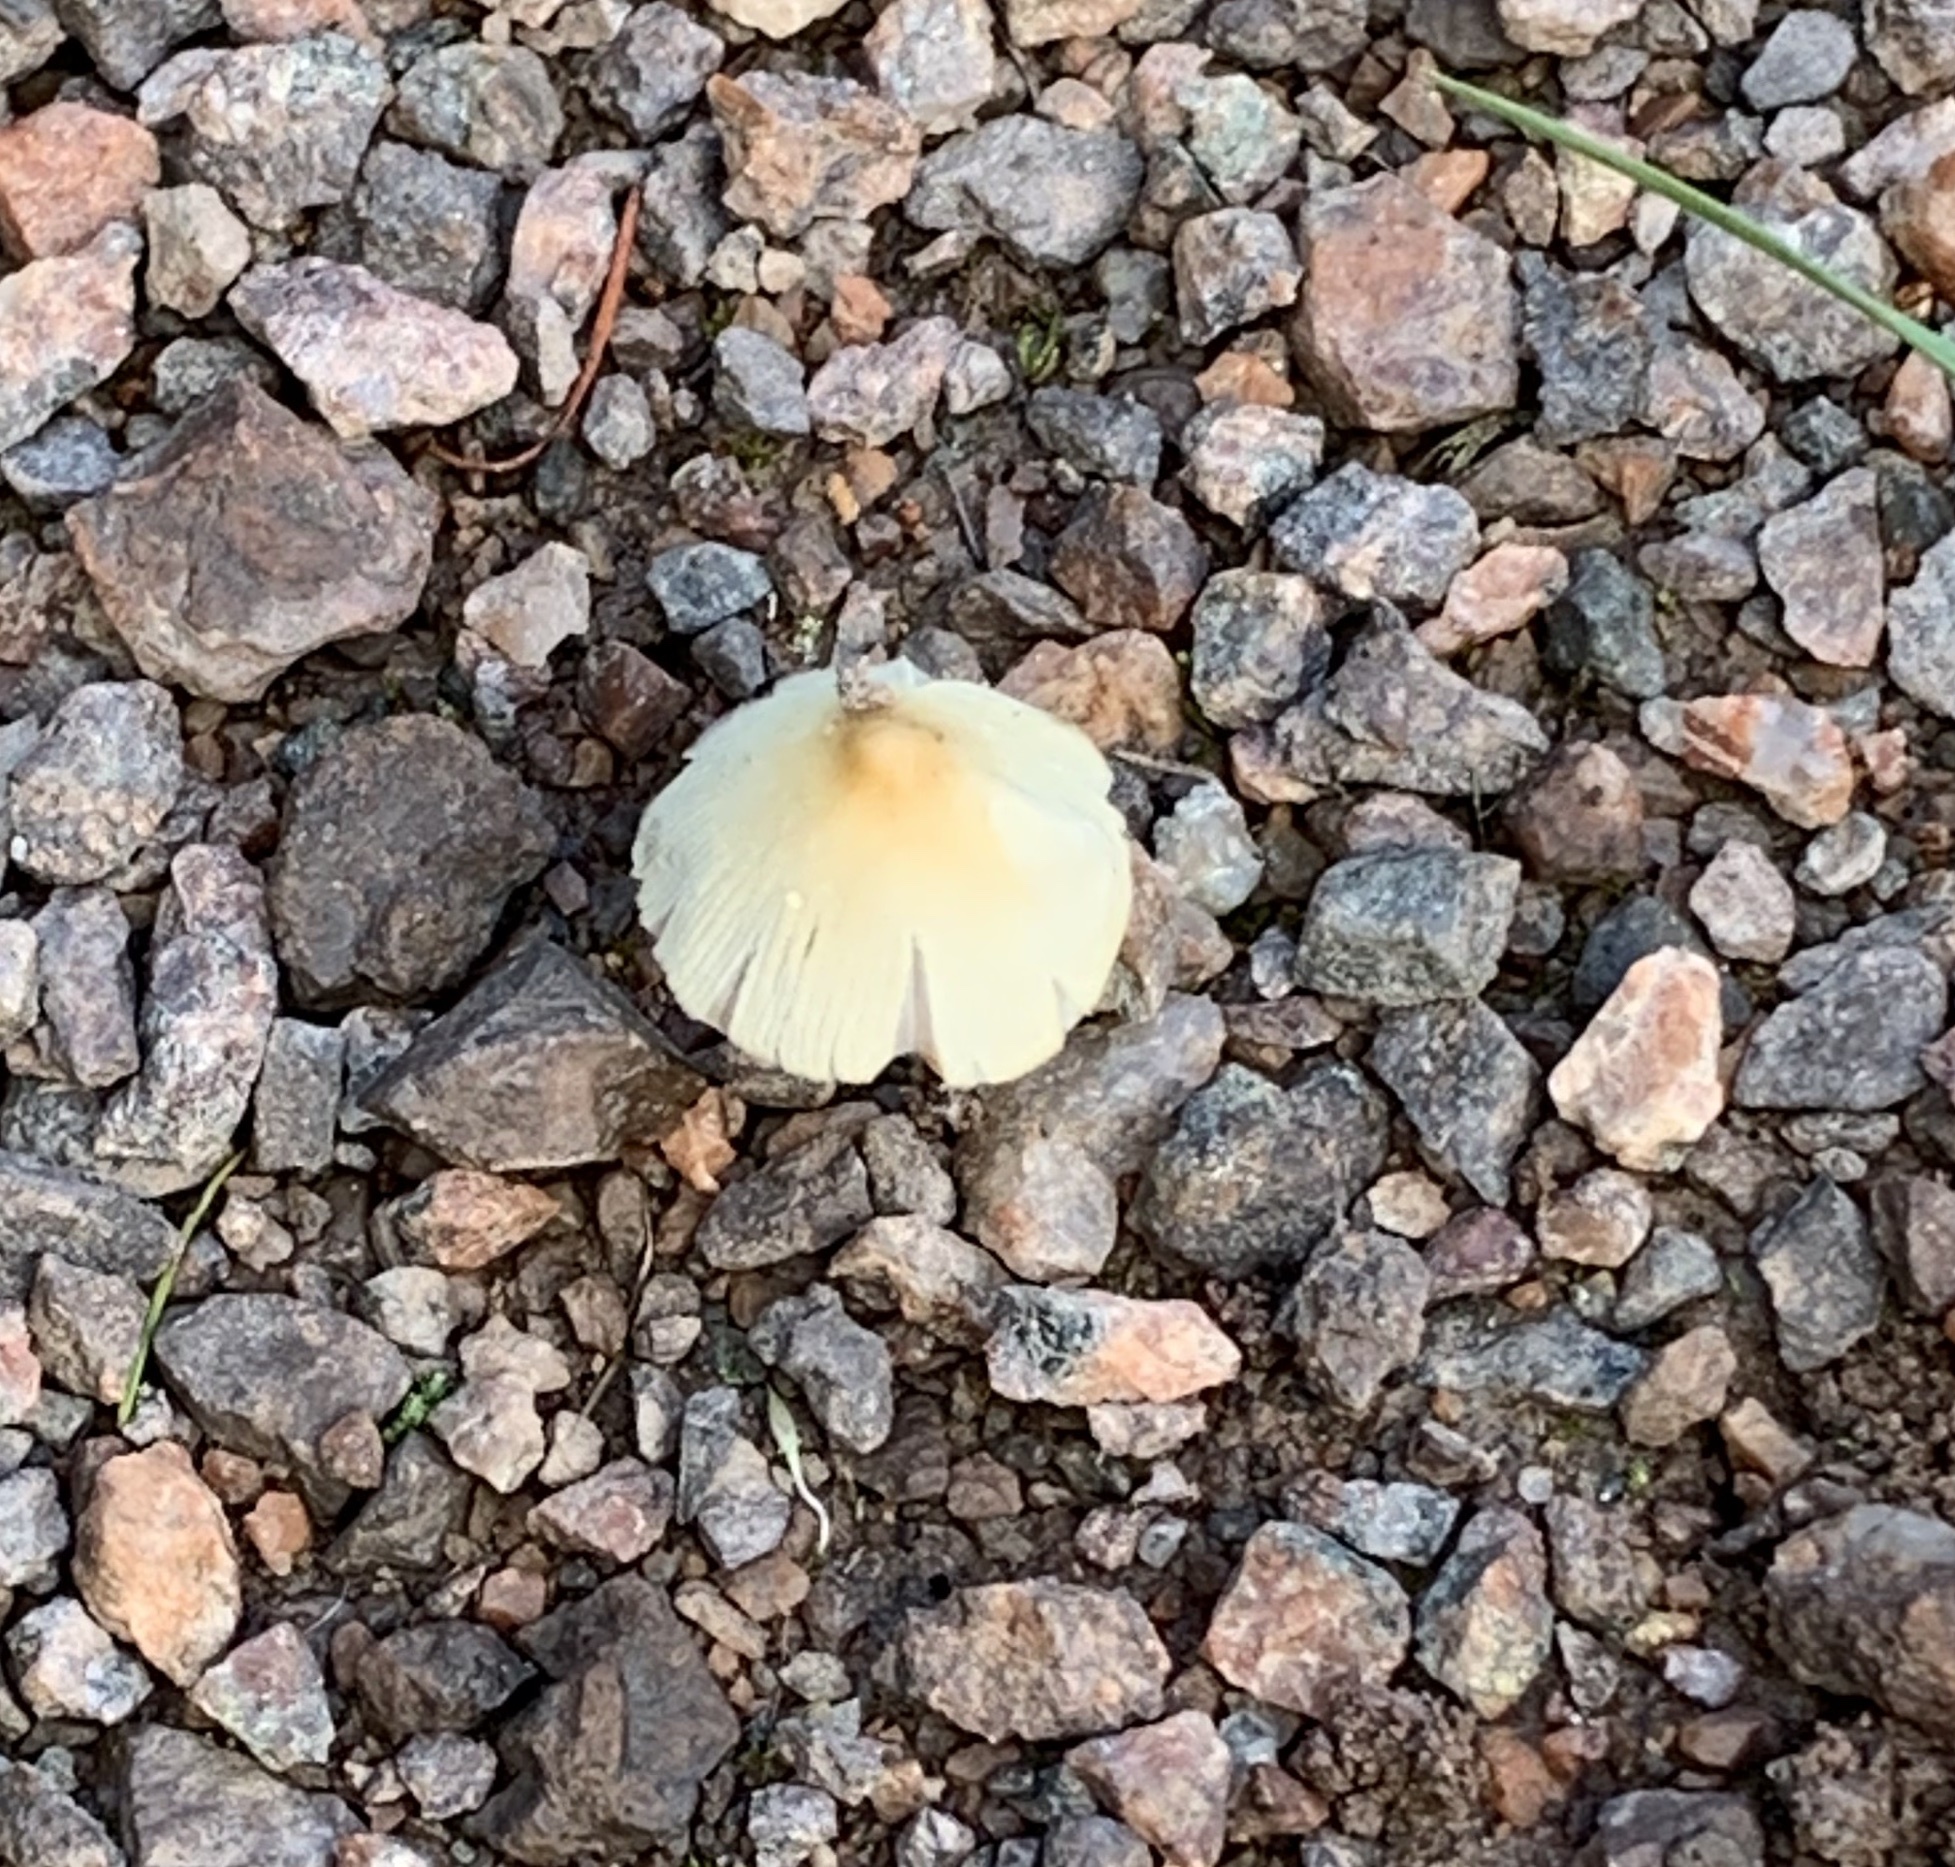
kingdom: Fungi
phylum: Basidiomycota
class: Agaricomycetes
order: Agaricales
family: Bolbitiaceae
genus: Conocybe
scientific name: Conocybe apala
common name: Milky conecap
